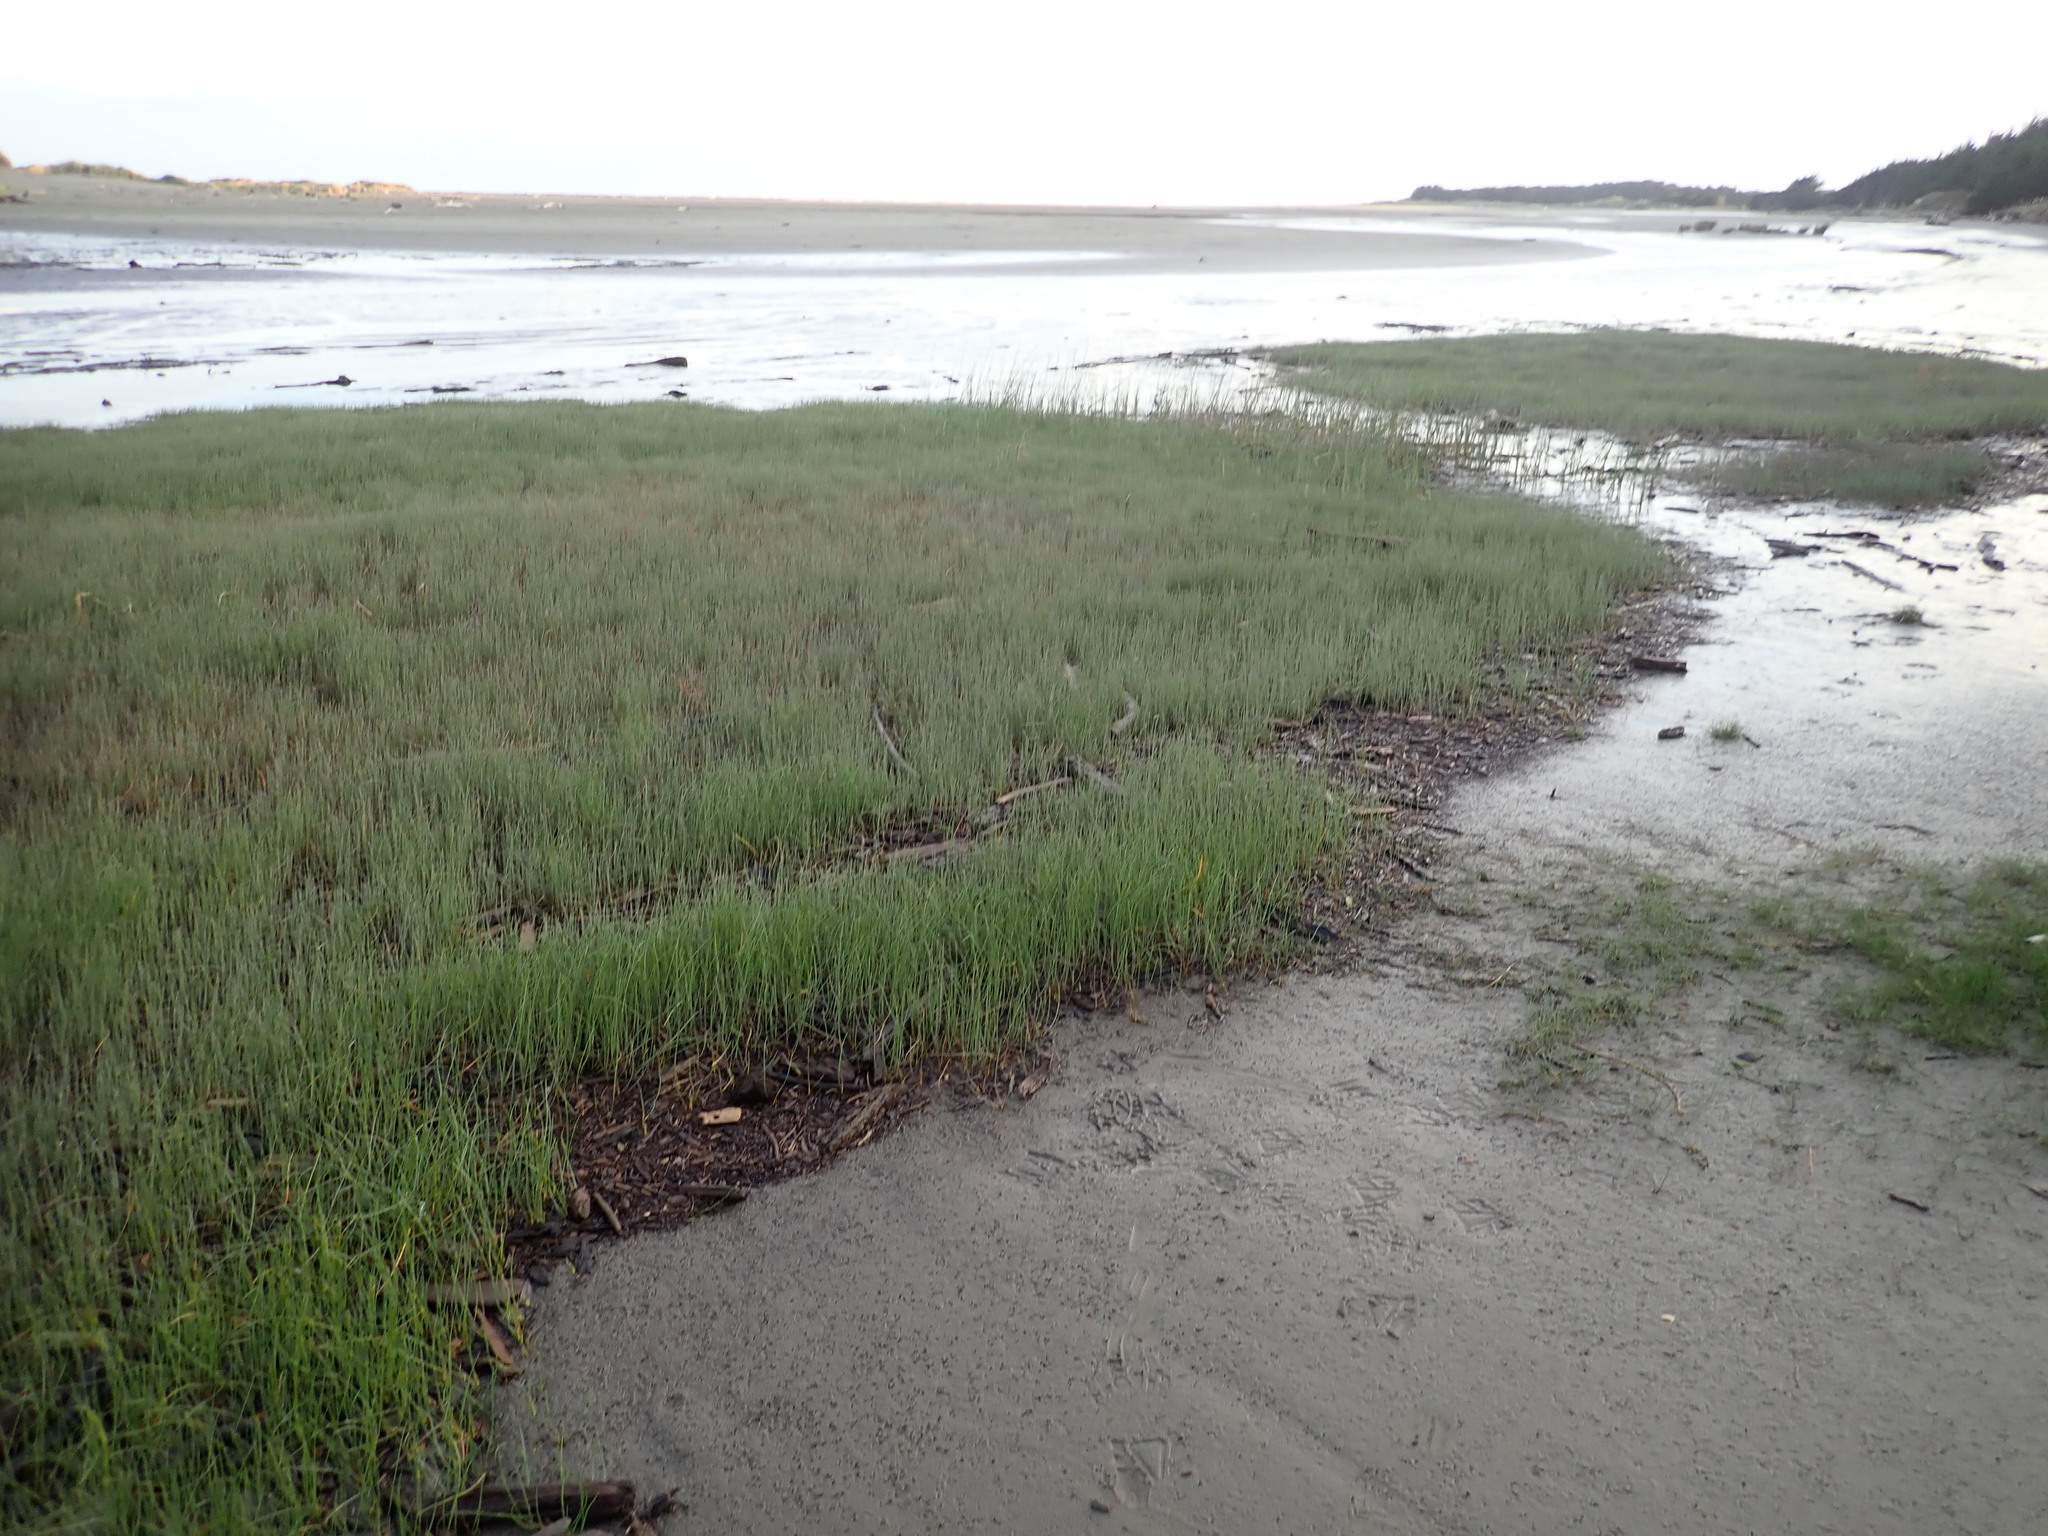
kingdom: Plantae
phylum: Tracheophyta
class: Liliopsida
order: Alismatales
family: Juncaginaceae
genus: Triglochin
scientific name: Triglochin striata
